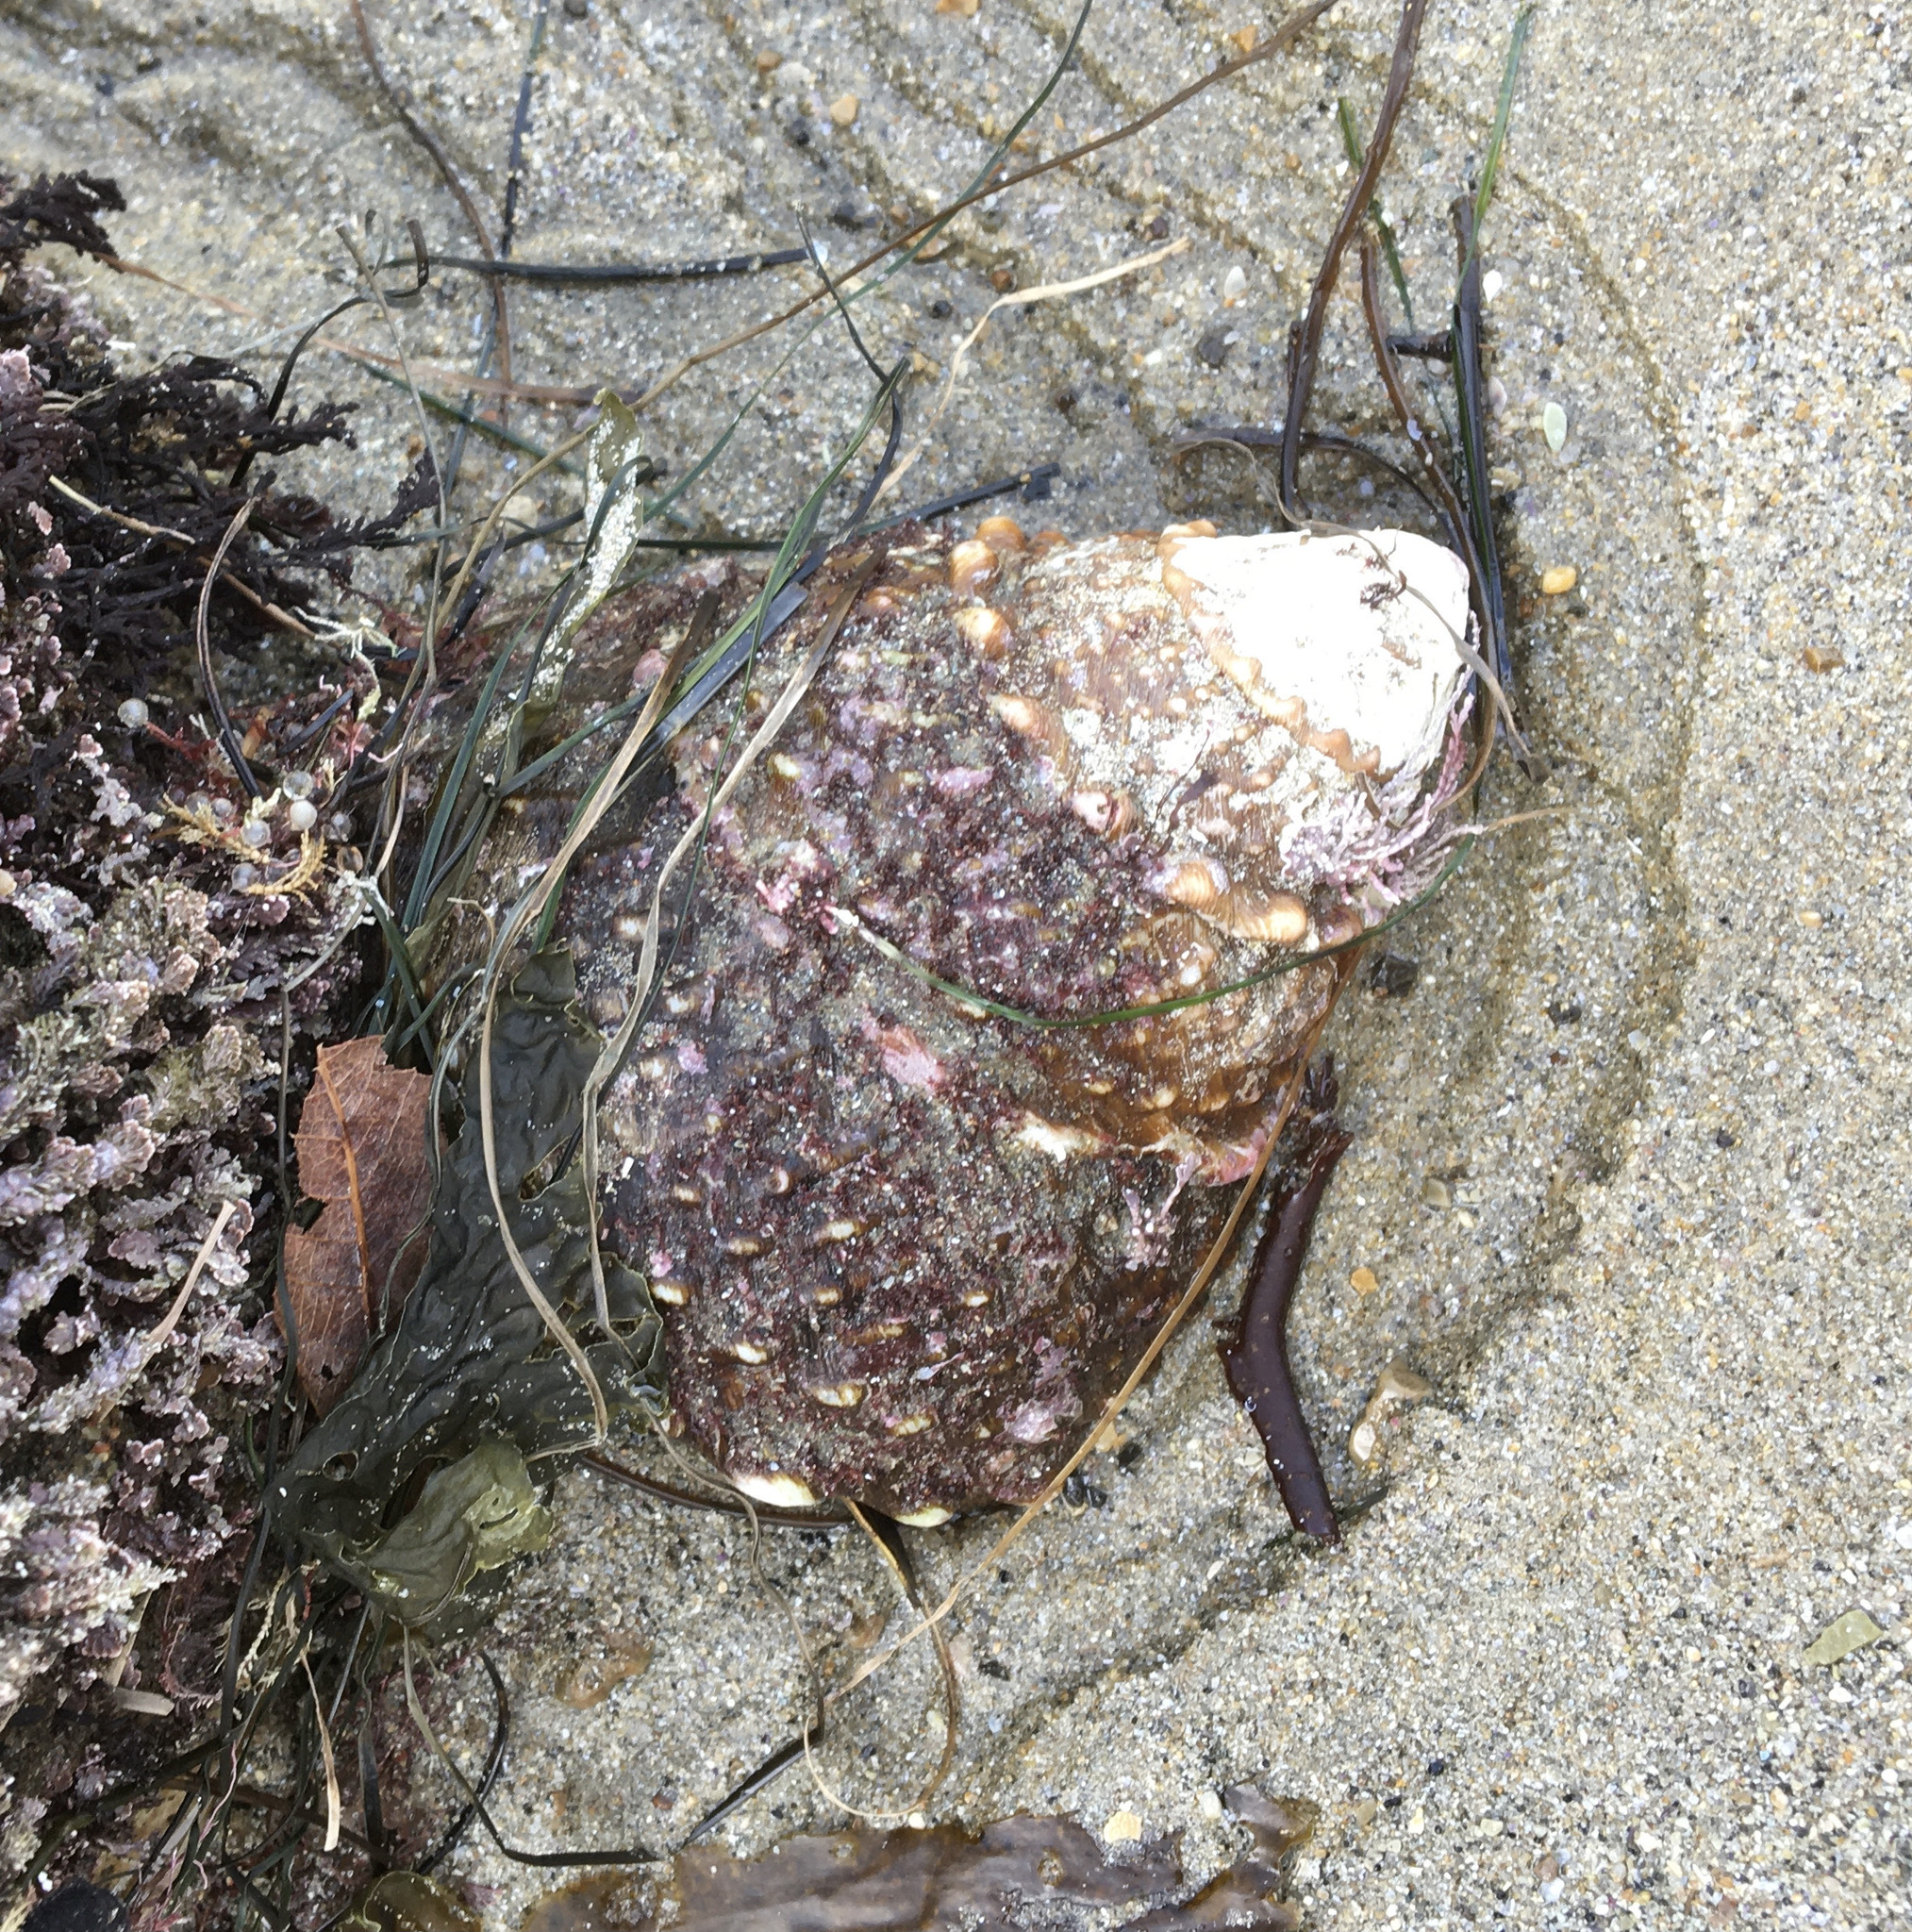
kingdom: Animalia
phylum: Mollusca
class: Gastropoda
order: Trochida
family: Turbinidae
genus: Megastraea
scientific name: Megastraea undosa
